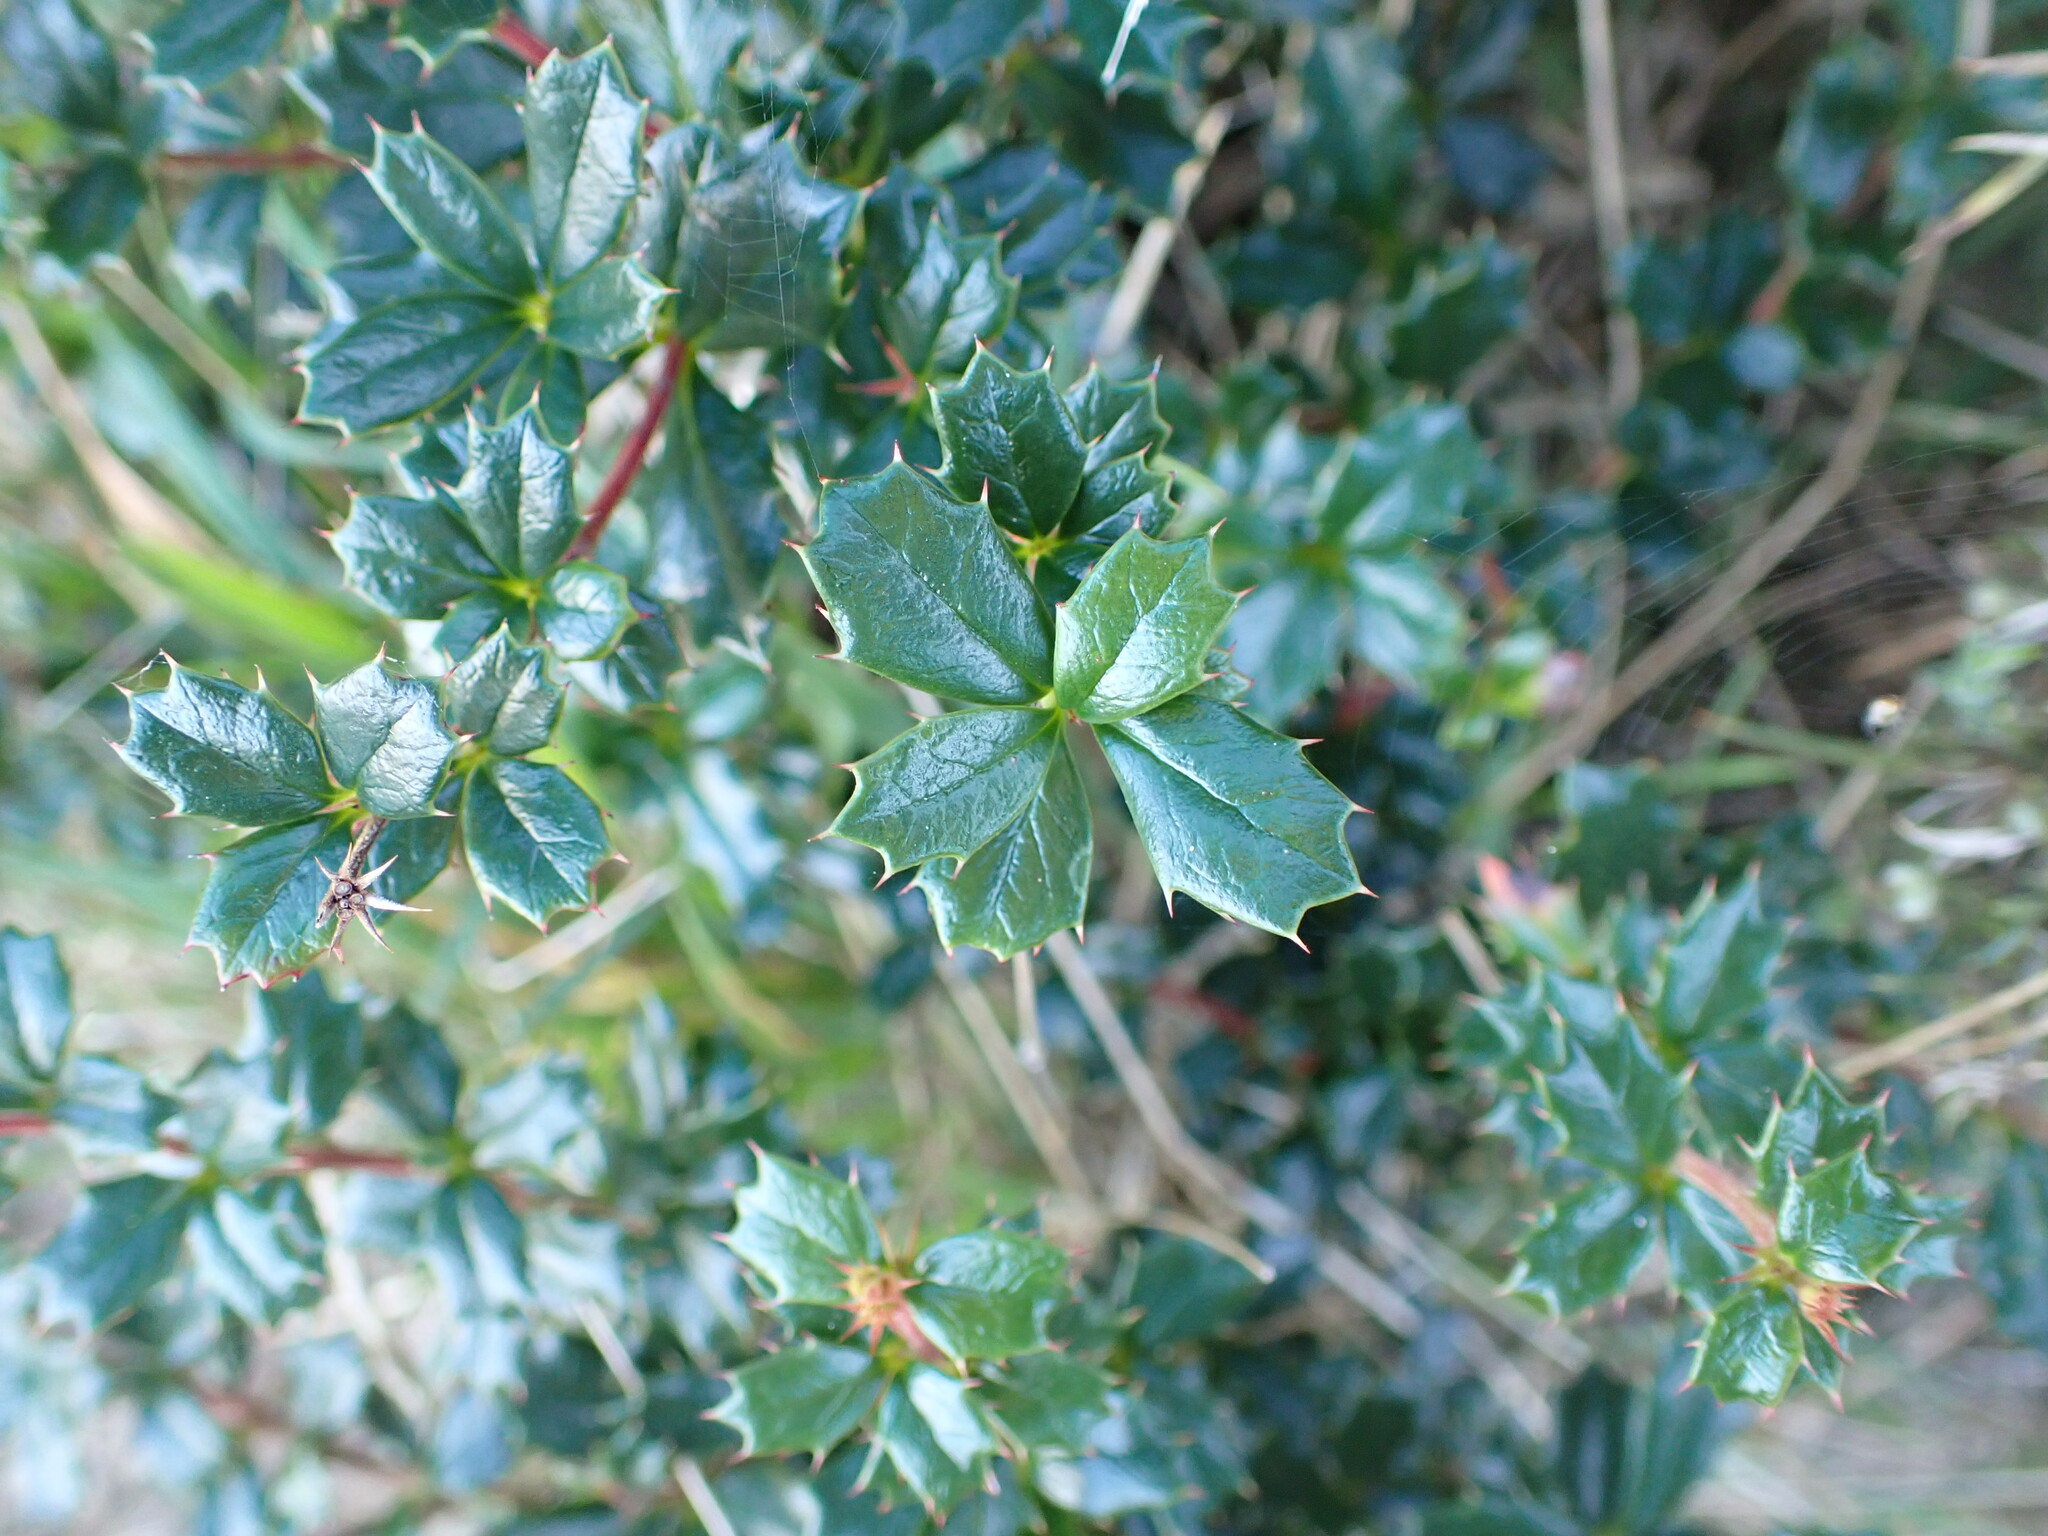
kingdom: Plantae
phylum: Tracheophyta
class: Magnoliopsida
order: Ranunculales
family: Berberidaceae
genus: Berberis
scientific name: Berberis darwinii
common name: Darwin's barberry
